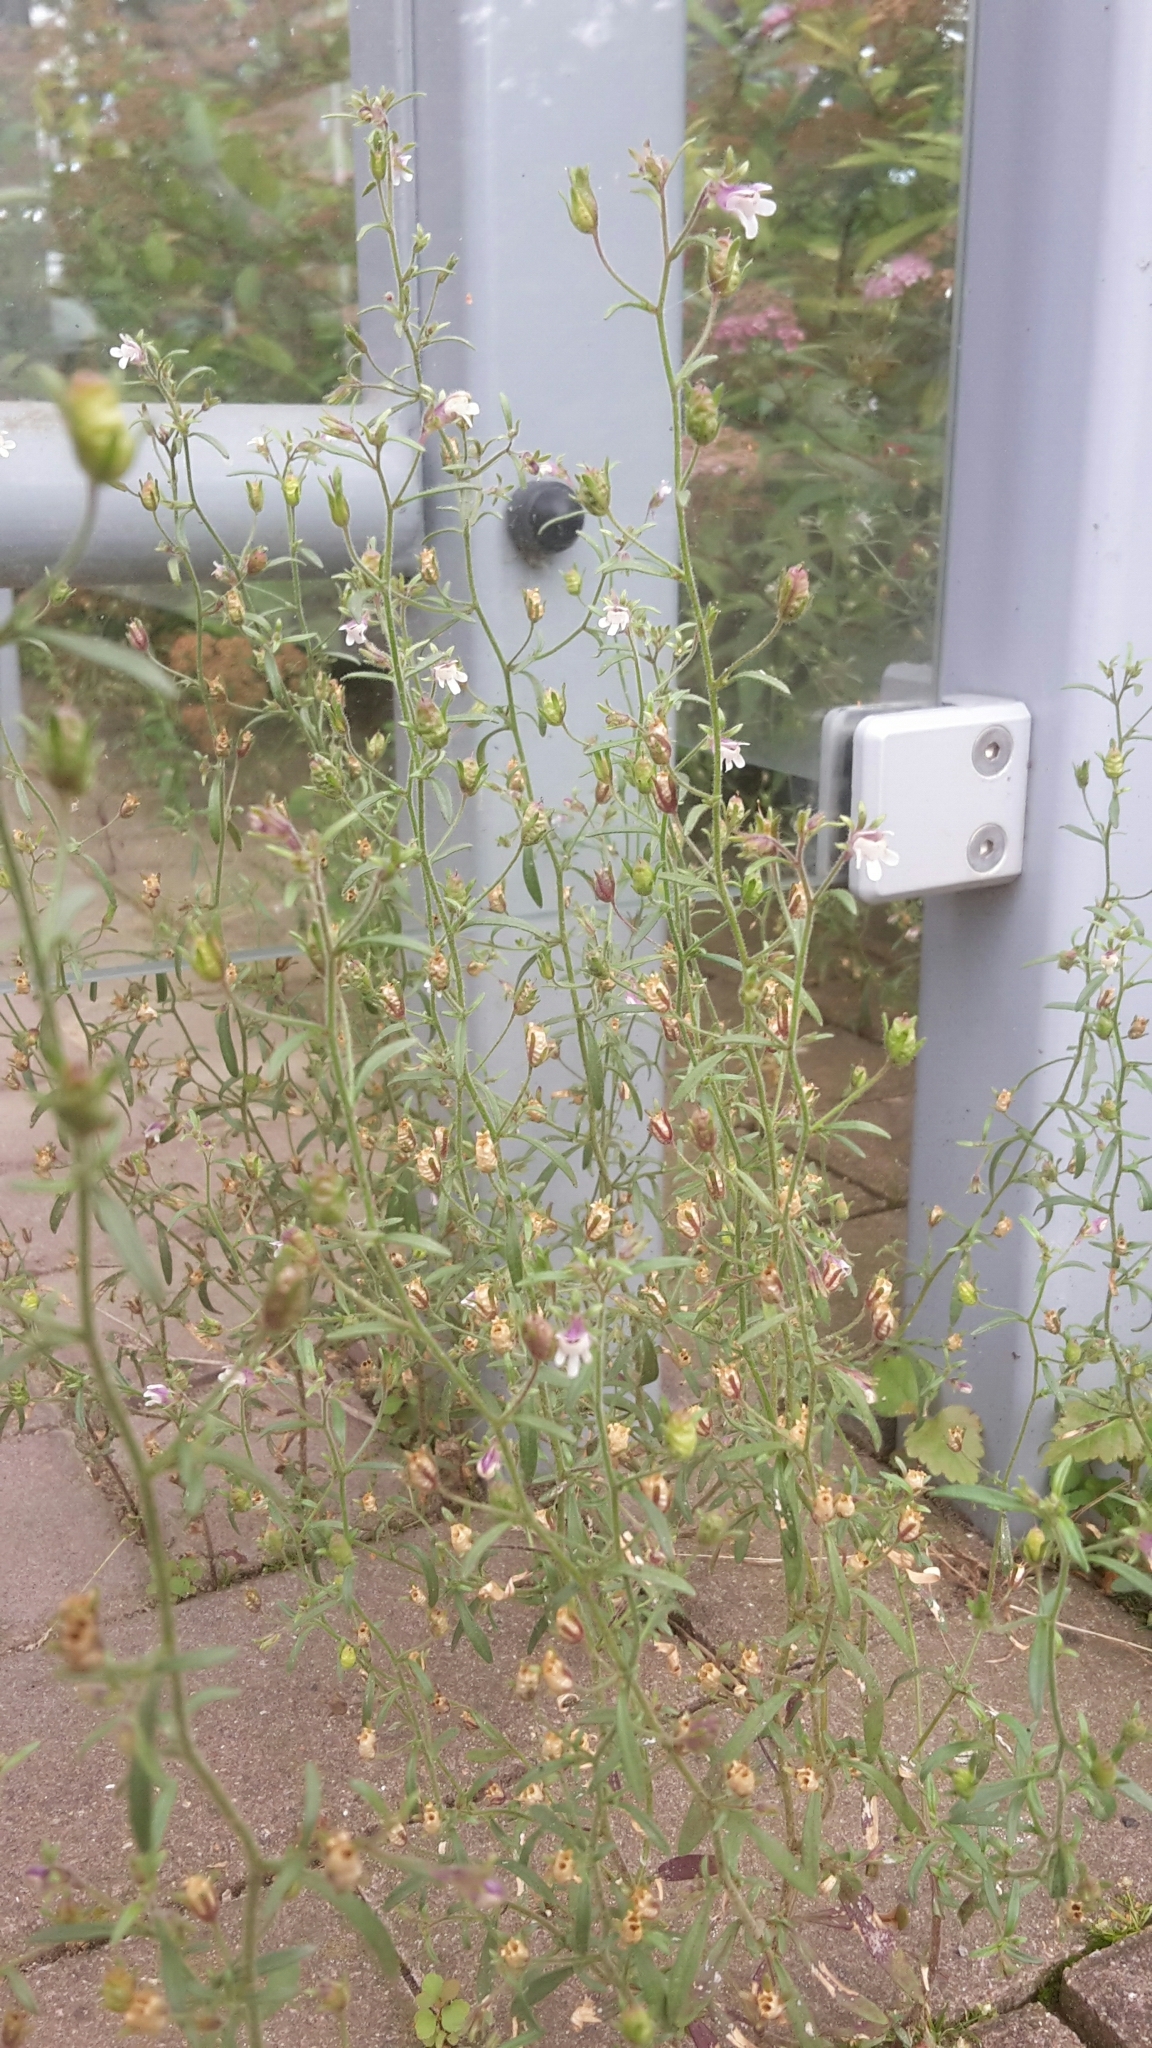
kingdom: Plantae
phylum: Tracheophyta
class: Magnoliopsida
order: Lamiales
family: Plantaginaceae
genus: Chaenorhinum
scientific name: Chaenorhinum minus
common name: Dwarf snapdragon
